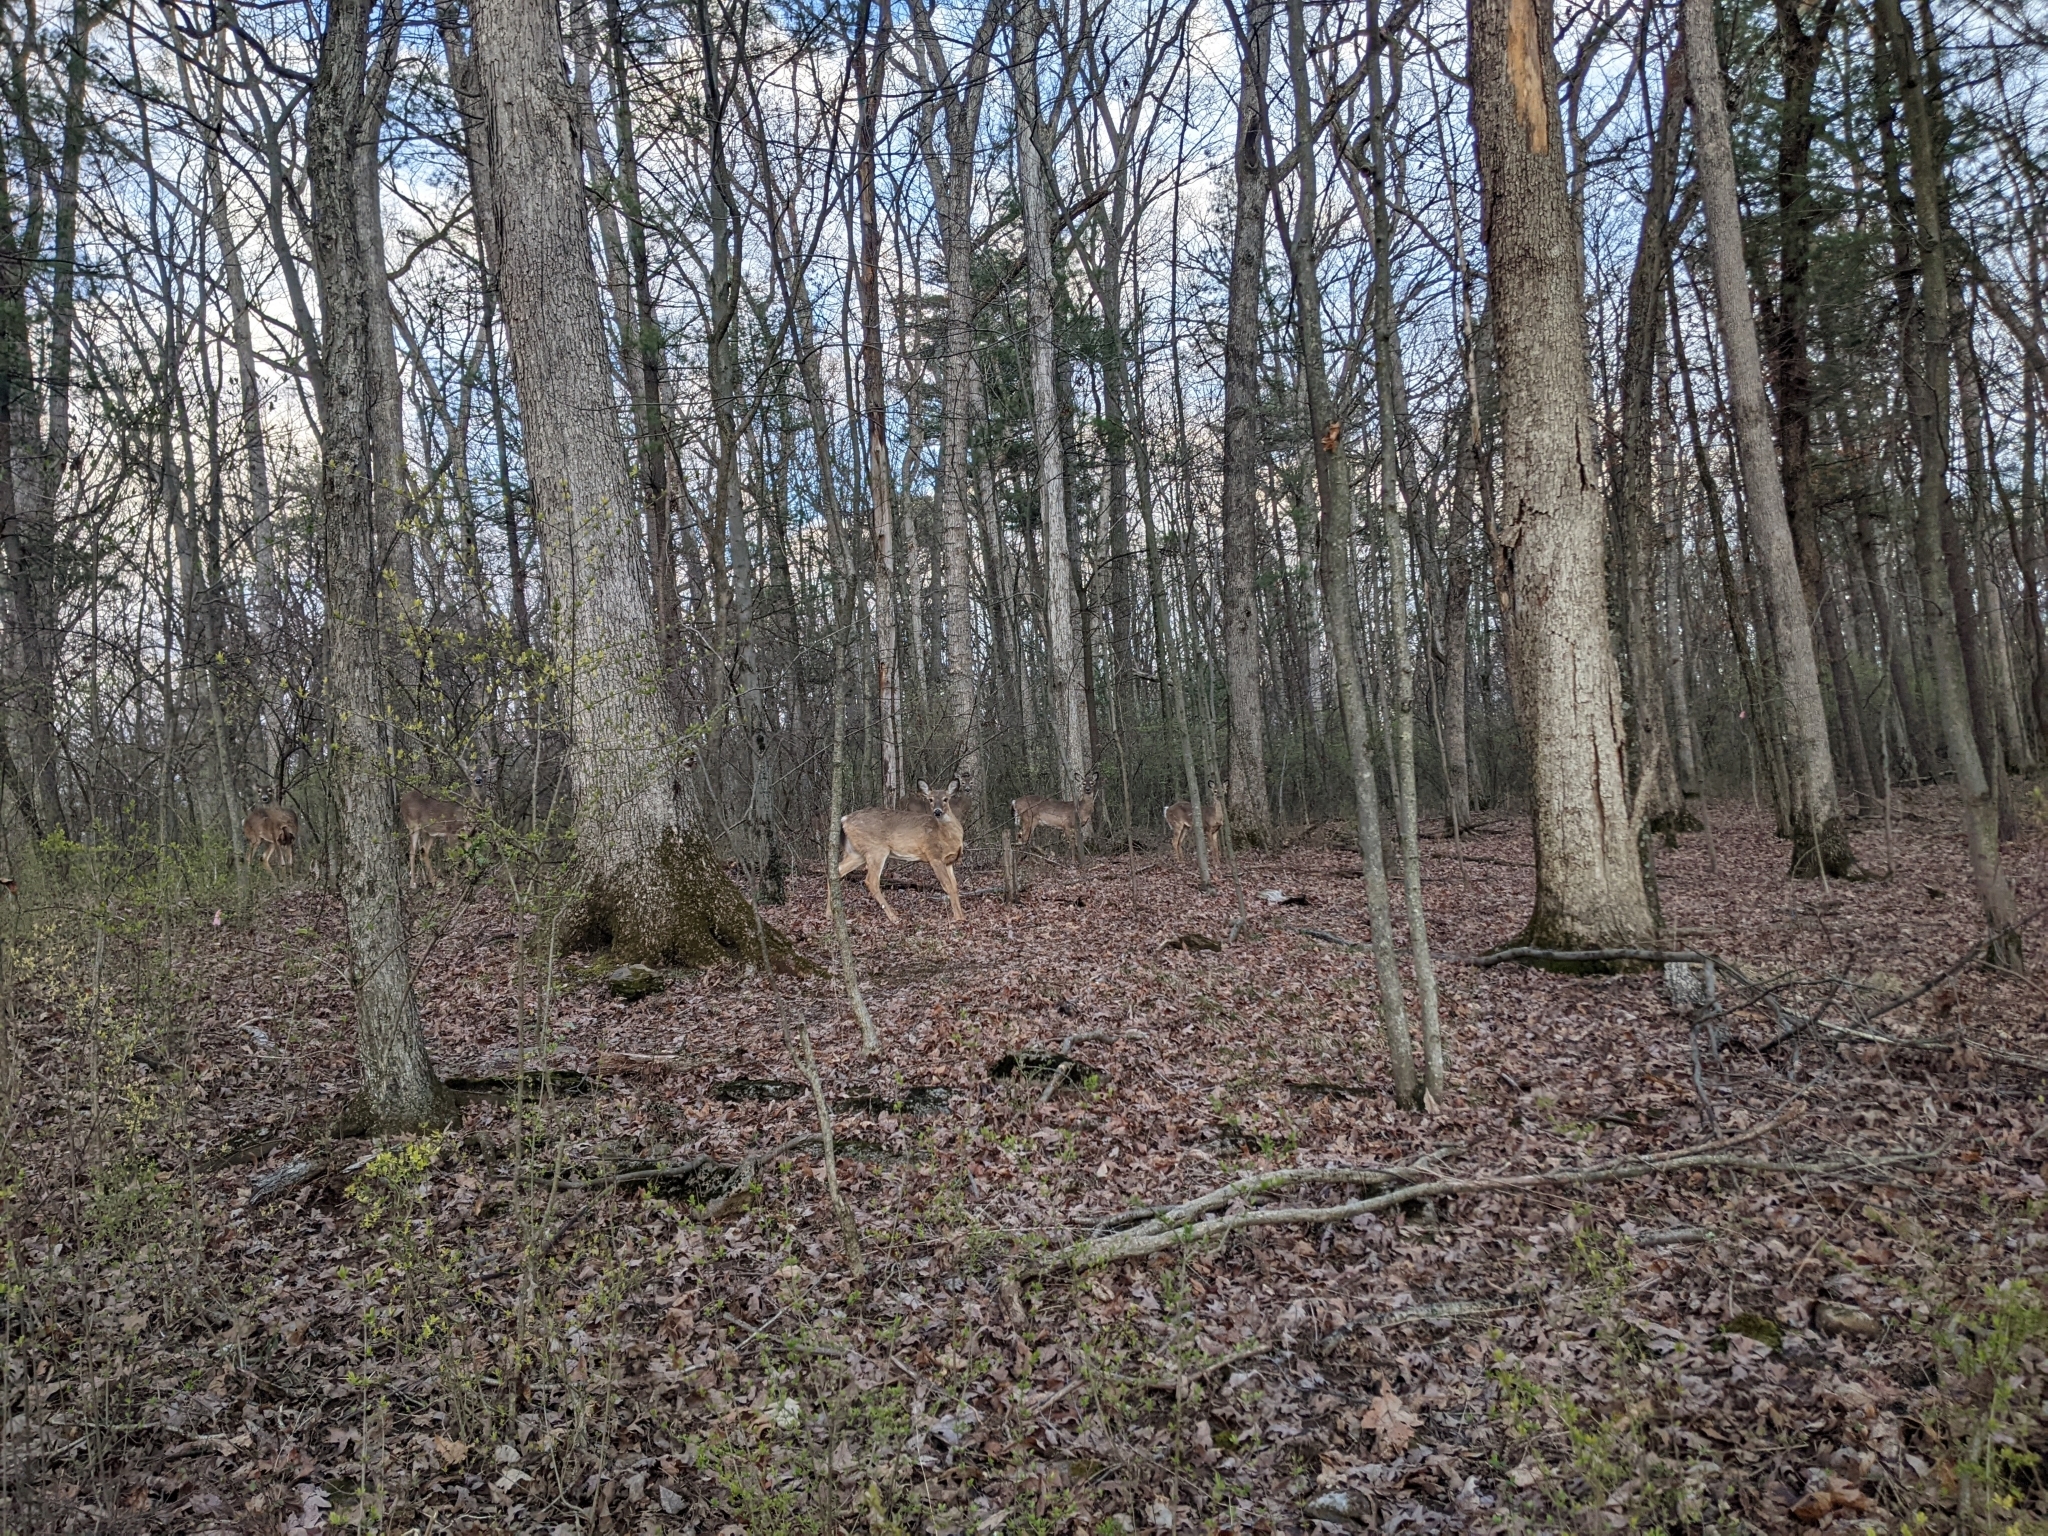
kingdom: Animalia
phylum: Chordata
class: Mammalia
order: Artiodactyla
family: Cervidae
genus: Odocoileus
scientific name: Odocoileus virginianus
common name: White-tailed deer
